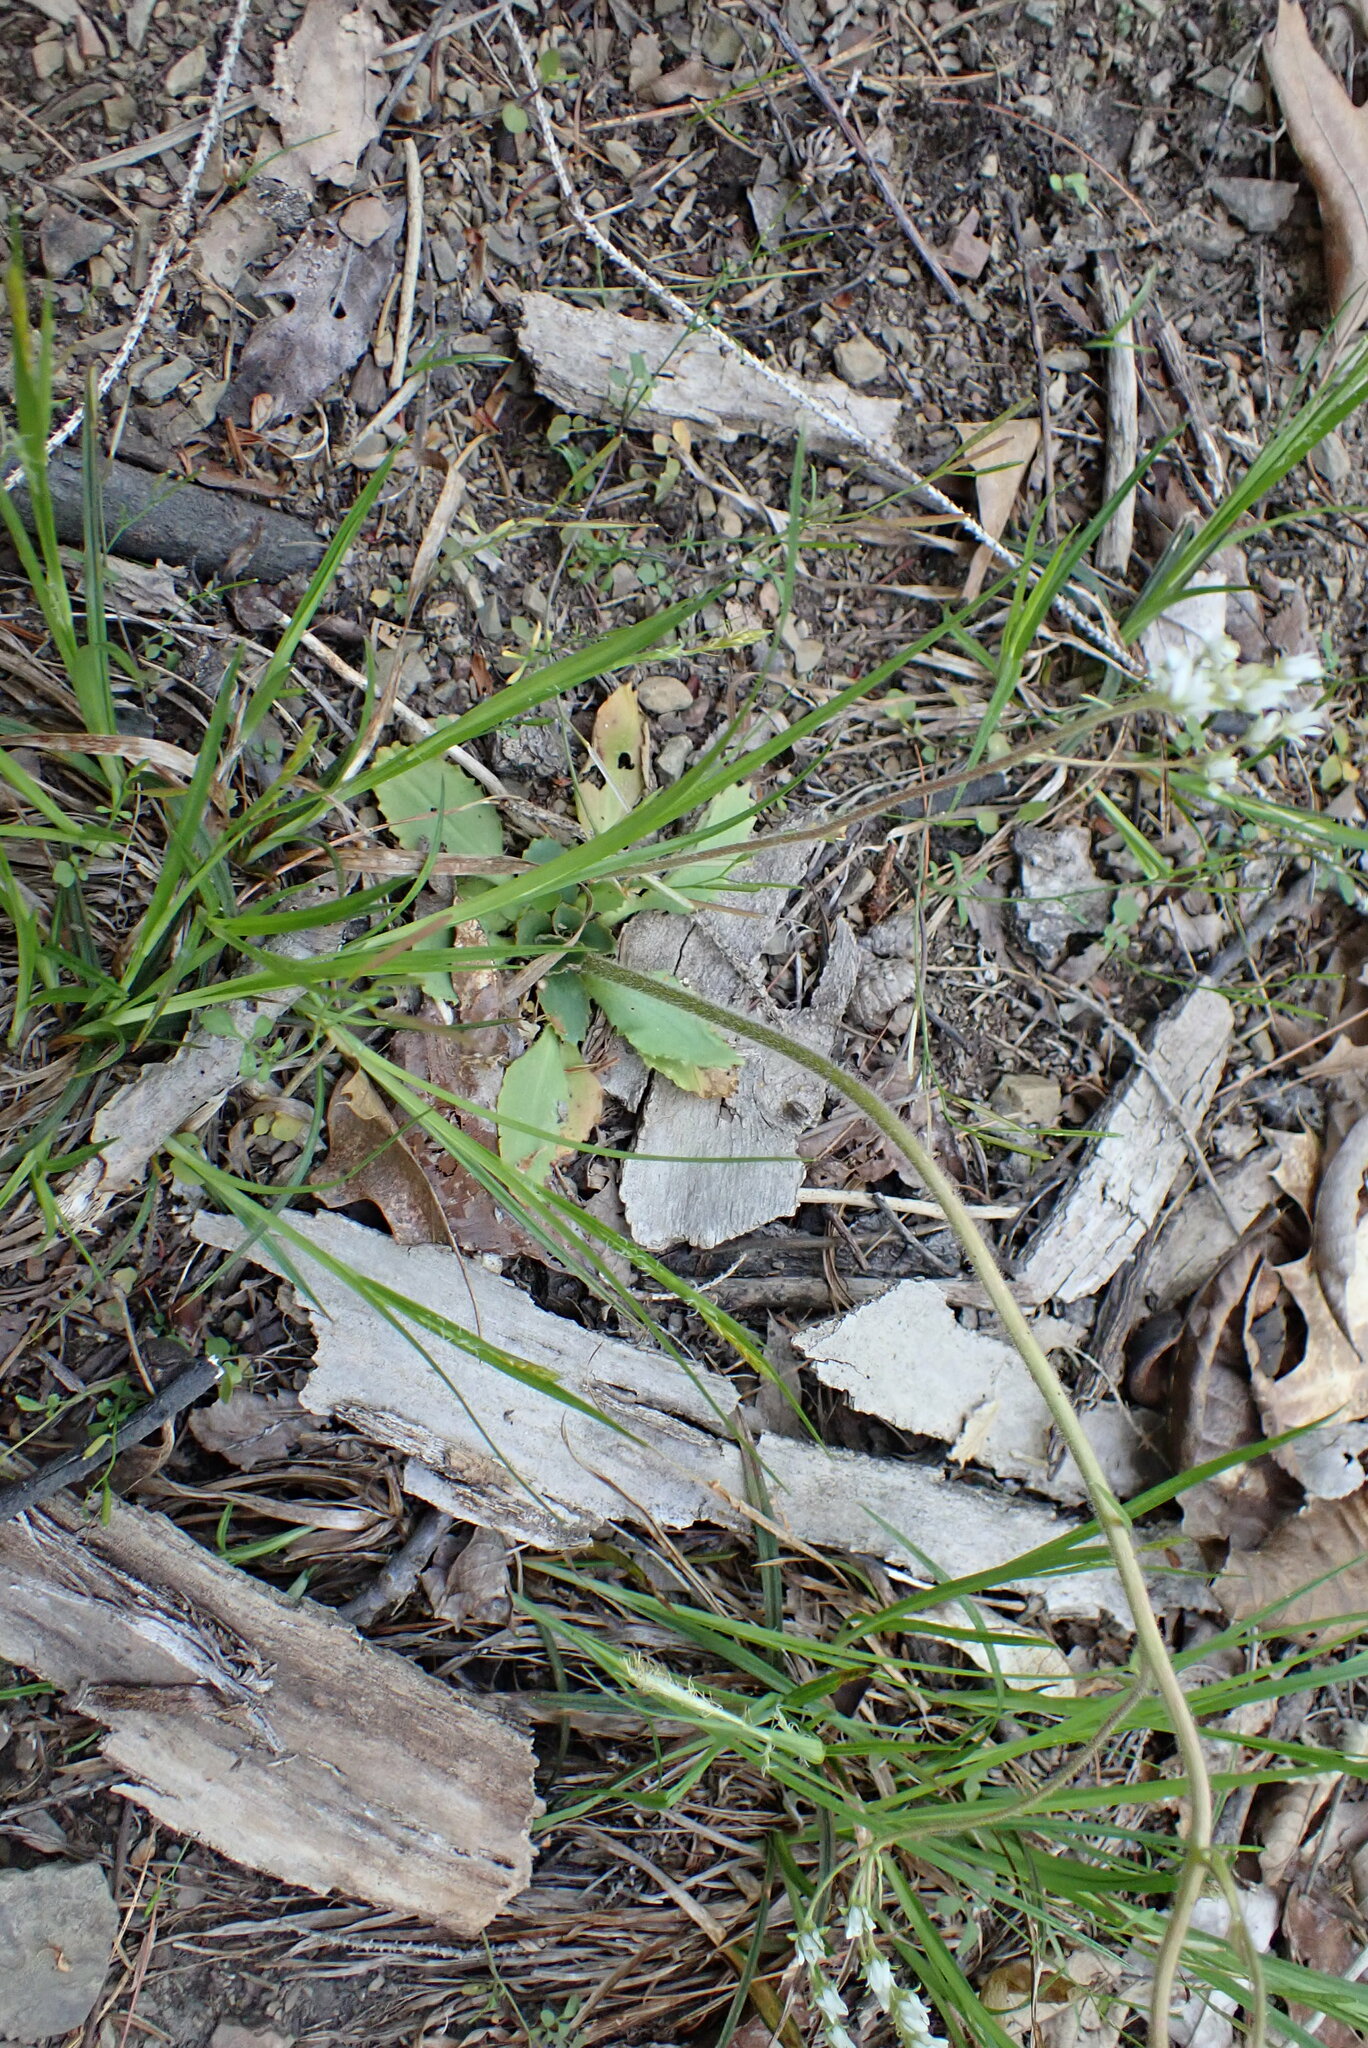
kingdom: Plantae
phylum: Tracheophyta
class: Magnoliopsida
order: Saxifragales
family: Saxifragaceae
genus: Micranthes
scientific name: Micranthes virginiensis
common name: Early saxifrage
